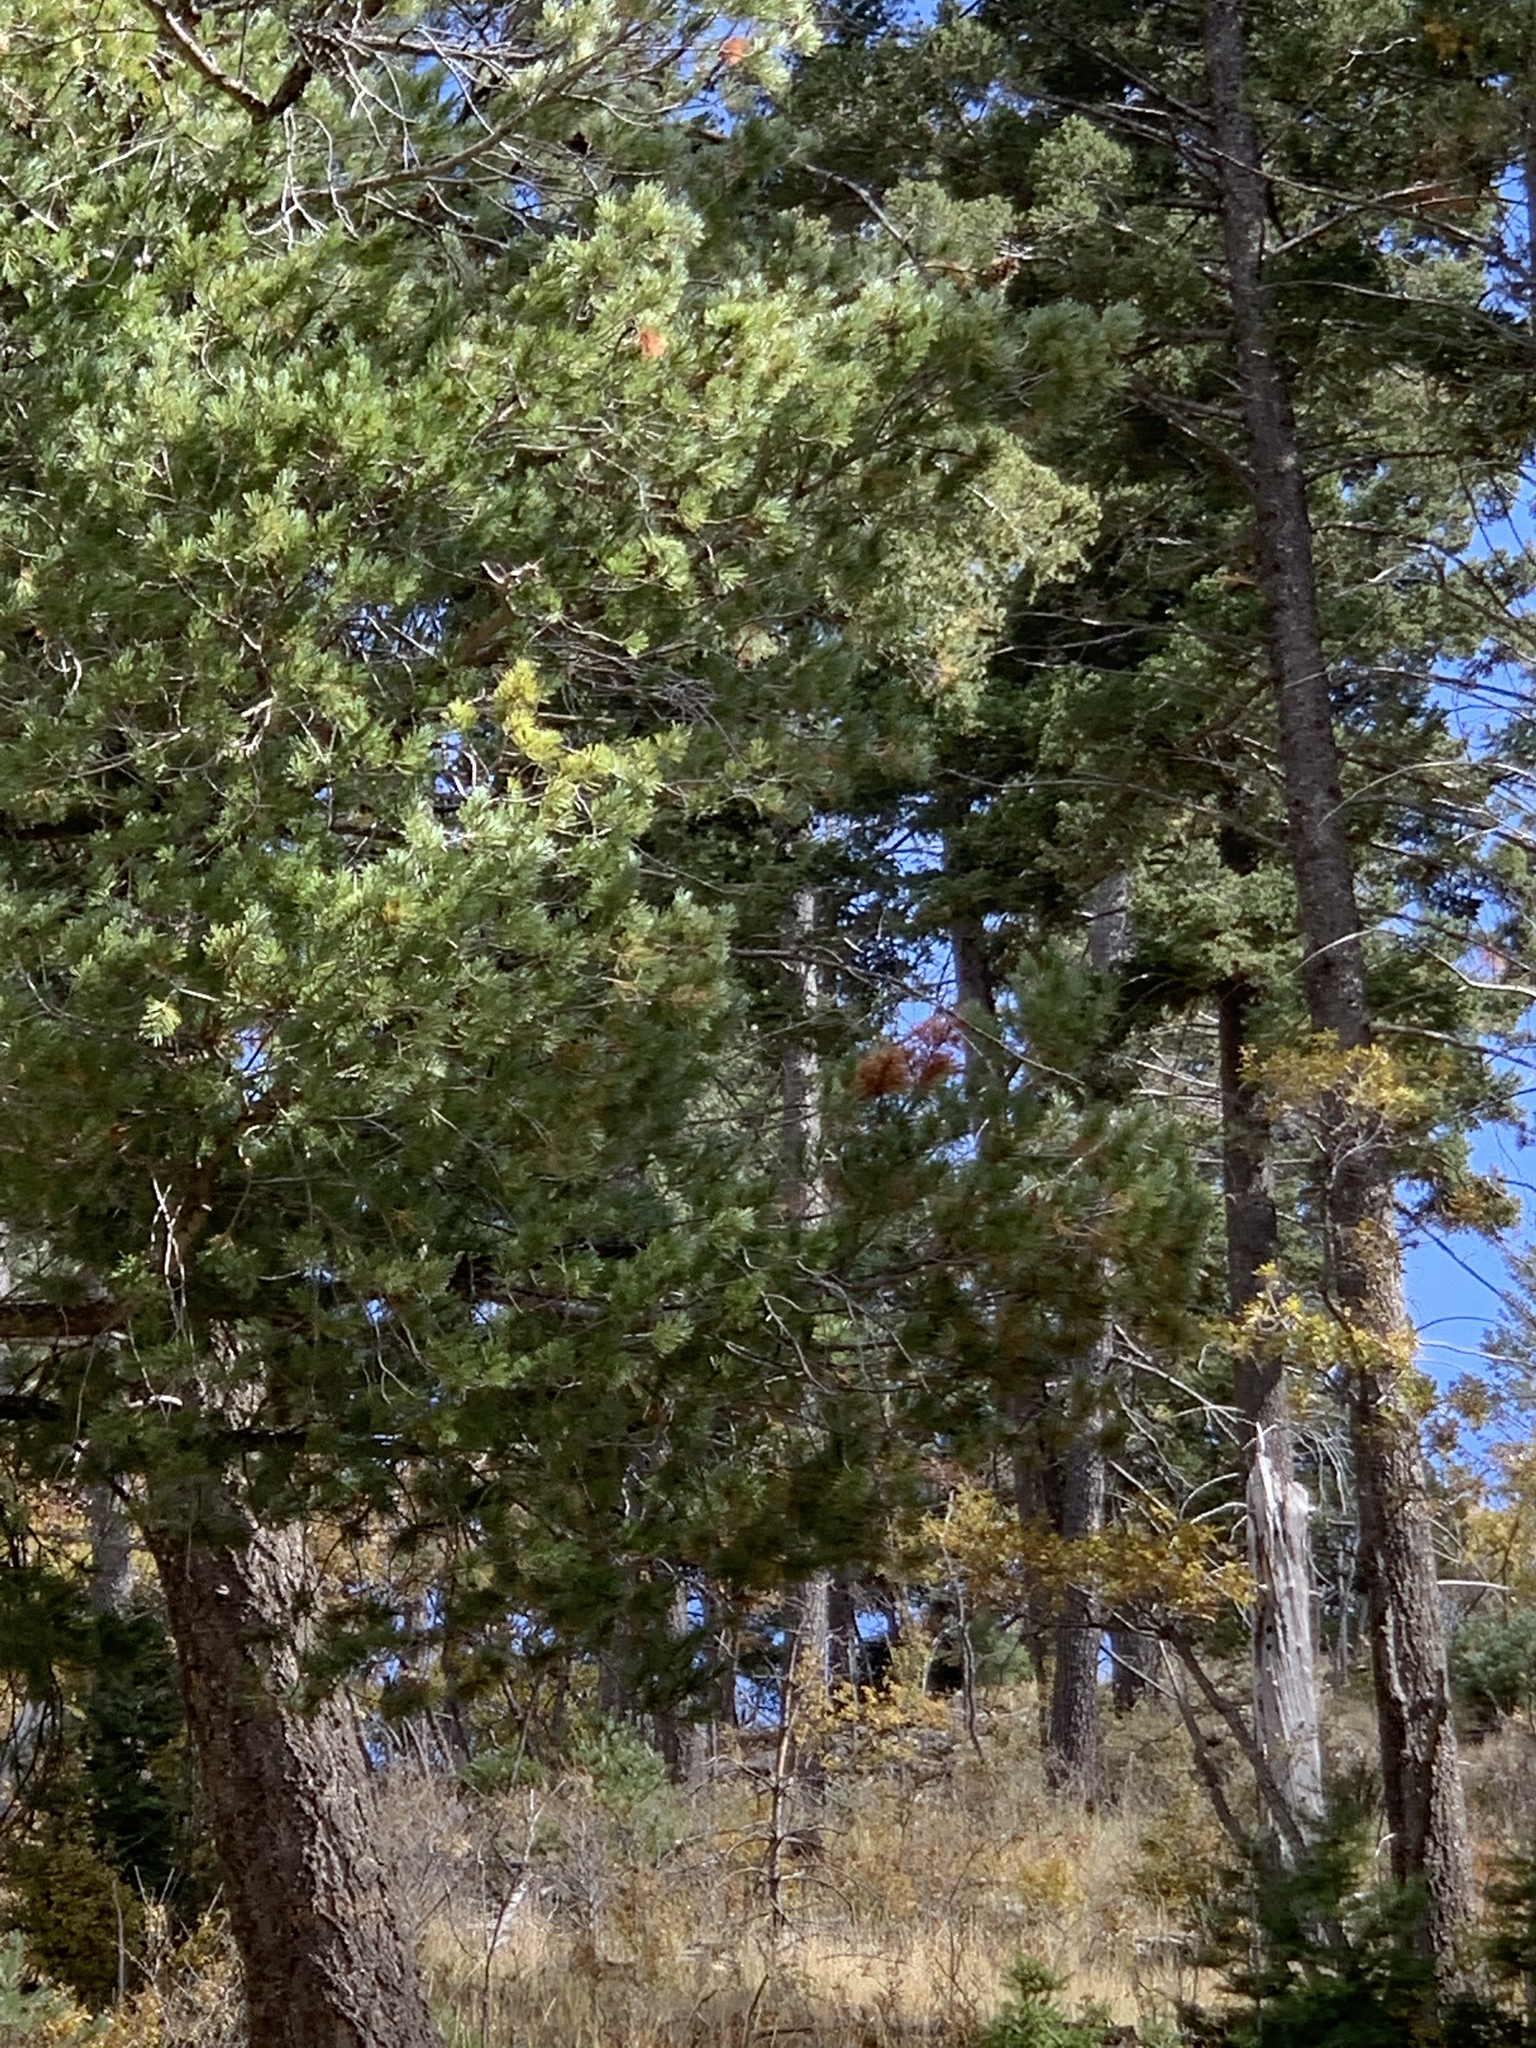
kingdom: Plantae
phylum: Tracheophyta
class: Pinopsida
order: Pinales
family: Pinaceae
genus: Pinus
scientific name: Pinus strobiformis
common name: Southwestern white pine
